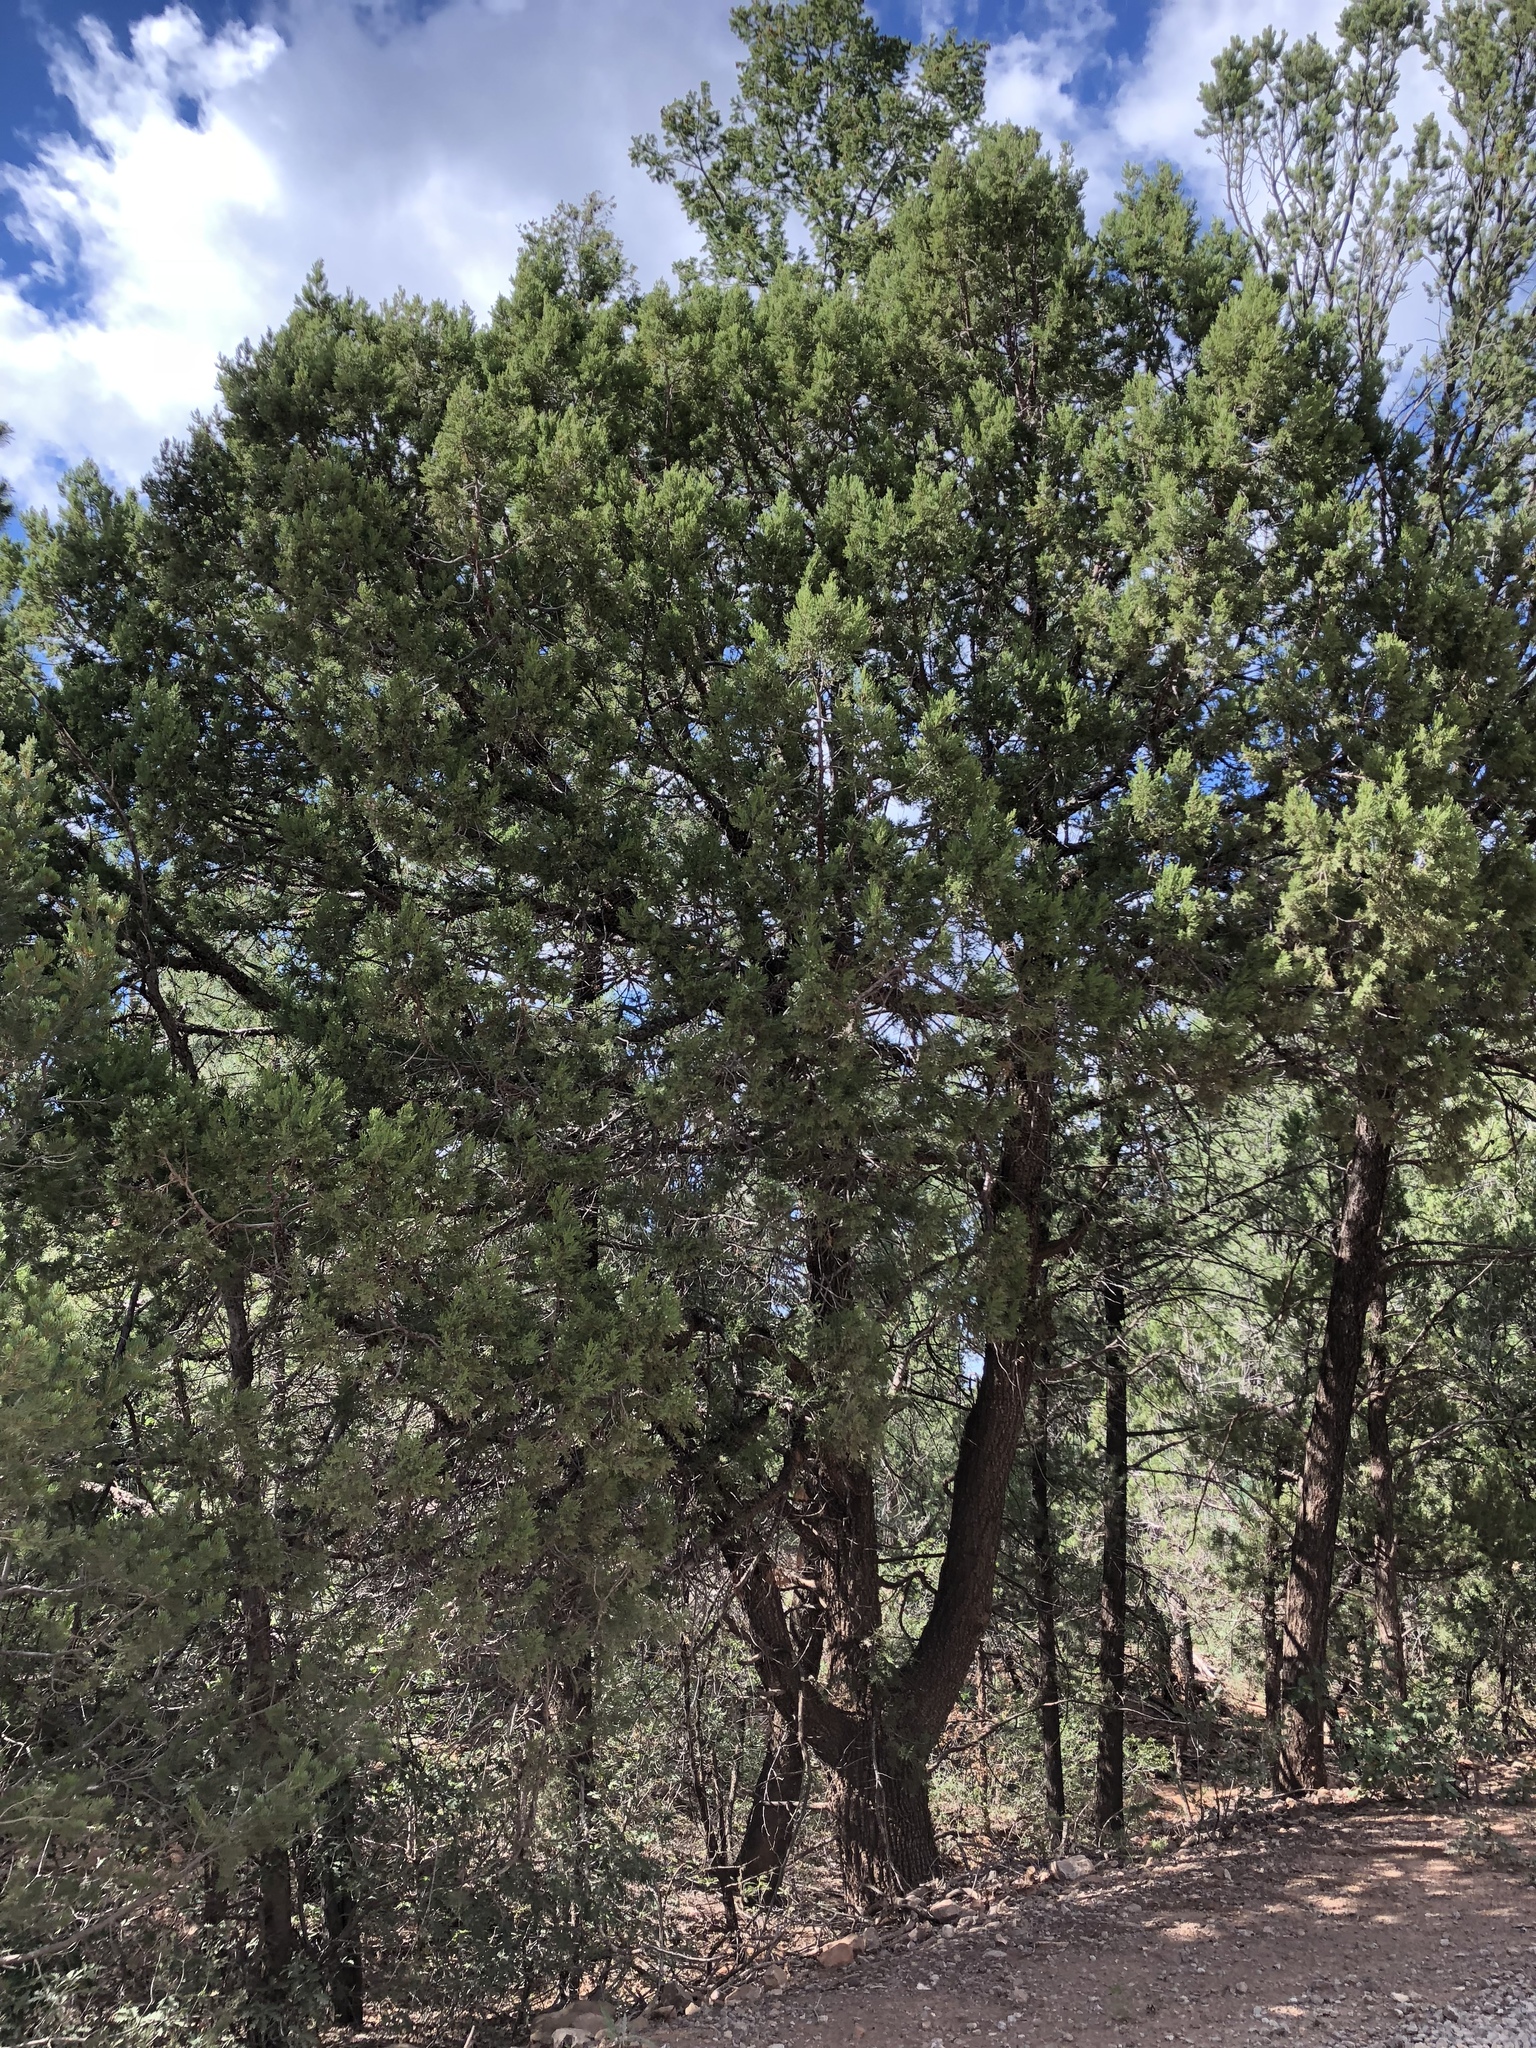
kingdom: Plantae
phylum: Tracheophyta
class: Pinopsida
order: Pinales
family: Cupressaceae
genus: Juniperus
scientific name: Juniperus deppeana
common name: Alligator juniper
